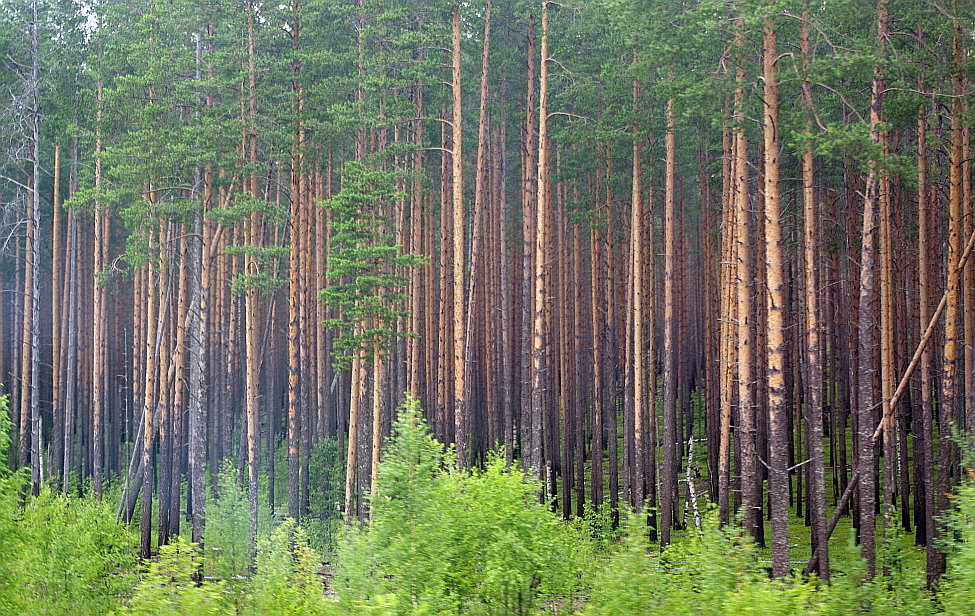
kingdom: Plantae
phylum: Tracheophyta
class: Pinopsida
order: Pinales
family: Pinaceae
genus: Pinus
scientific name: Pinus sylvestris
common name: Scots pine
